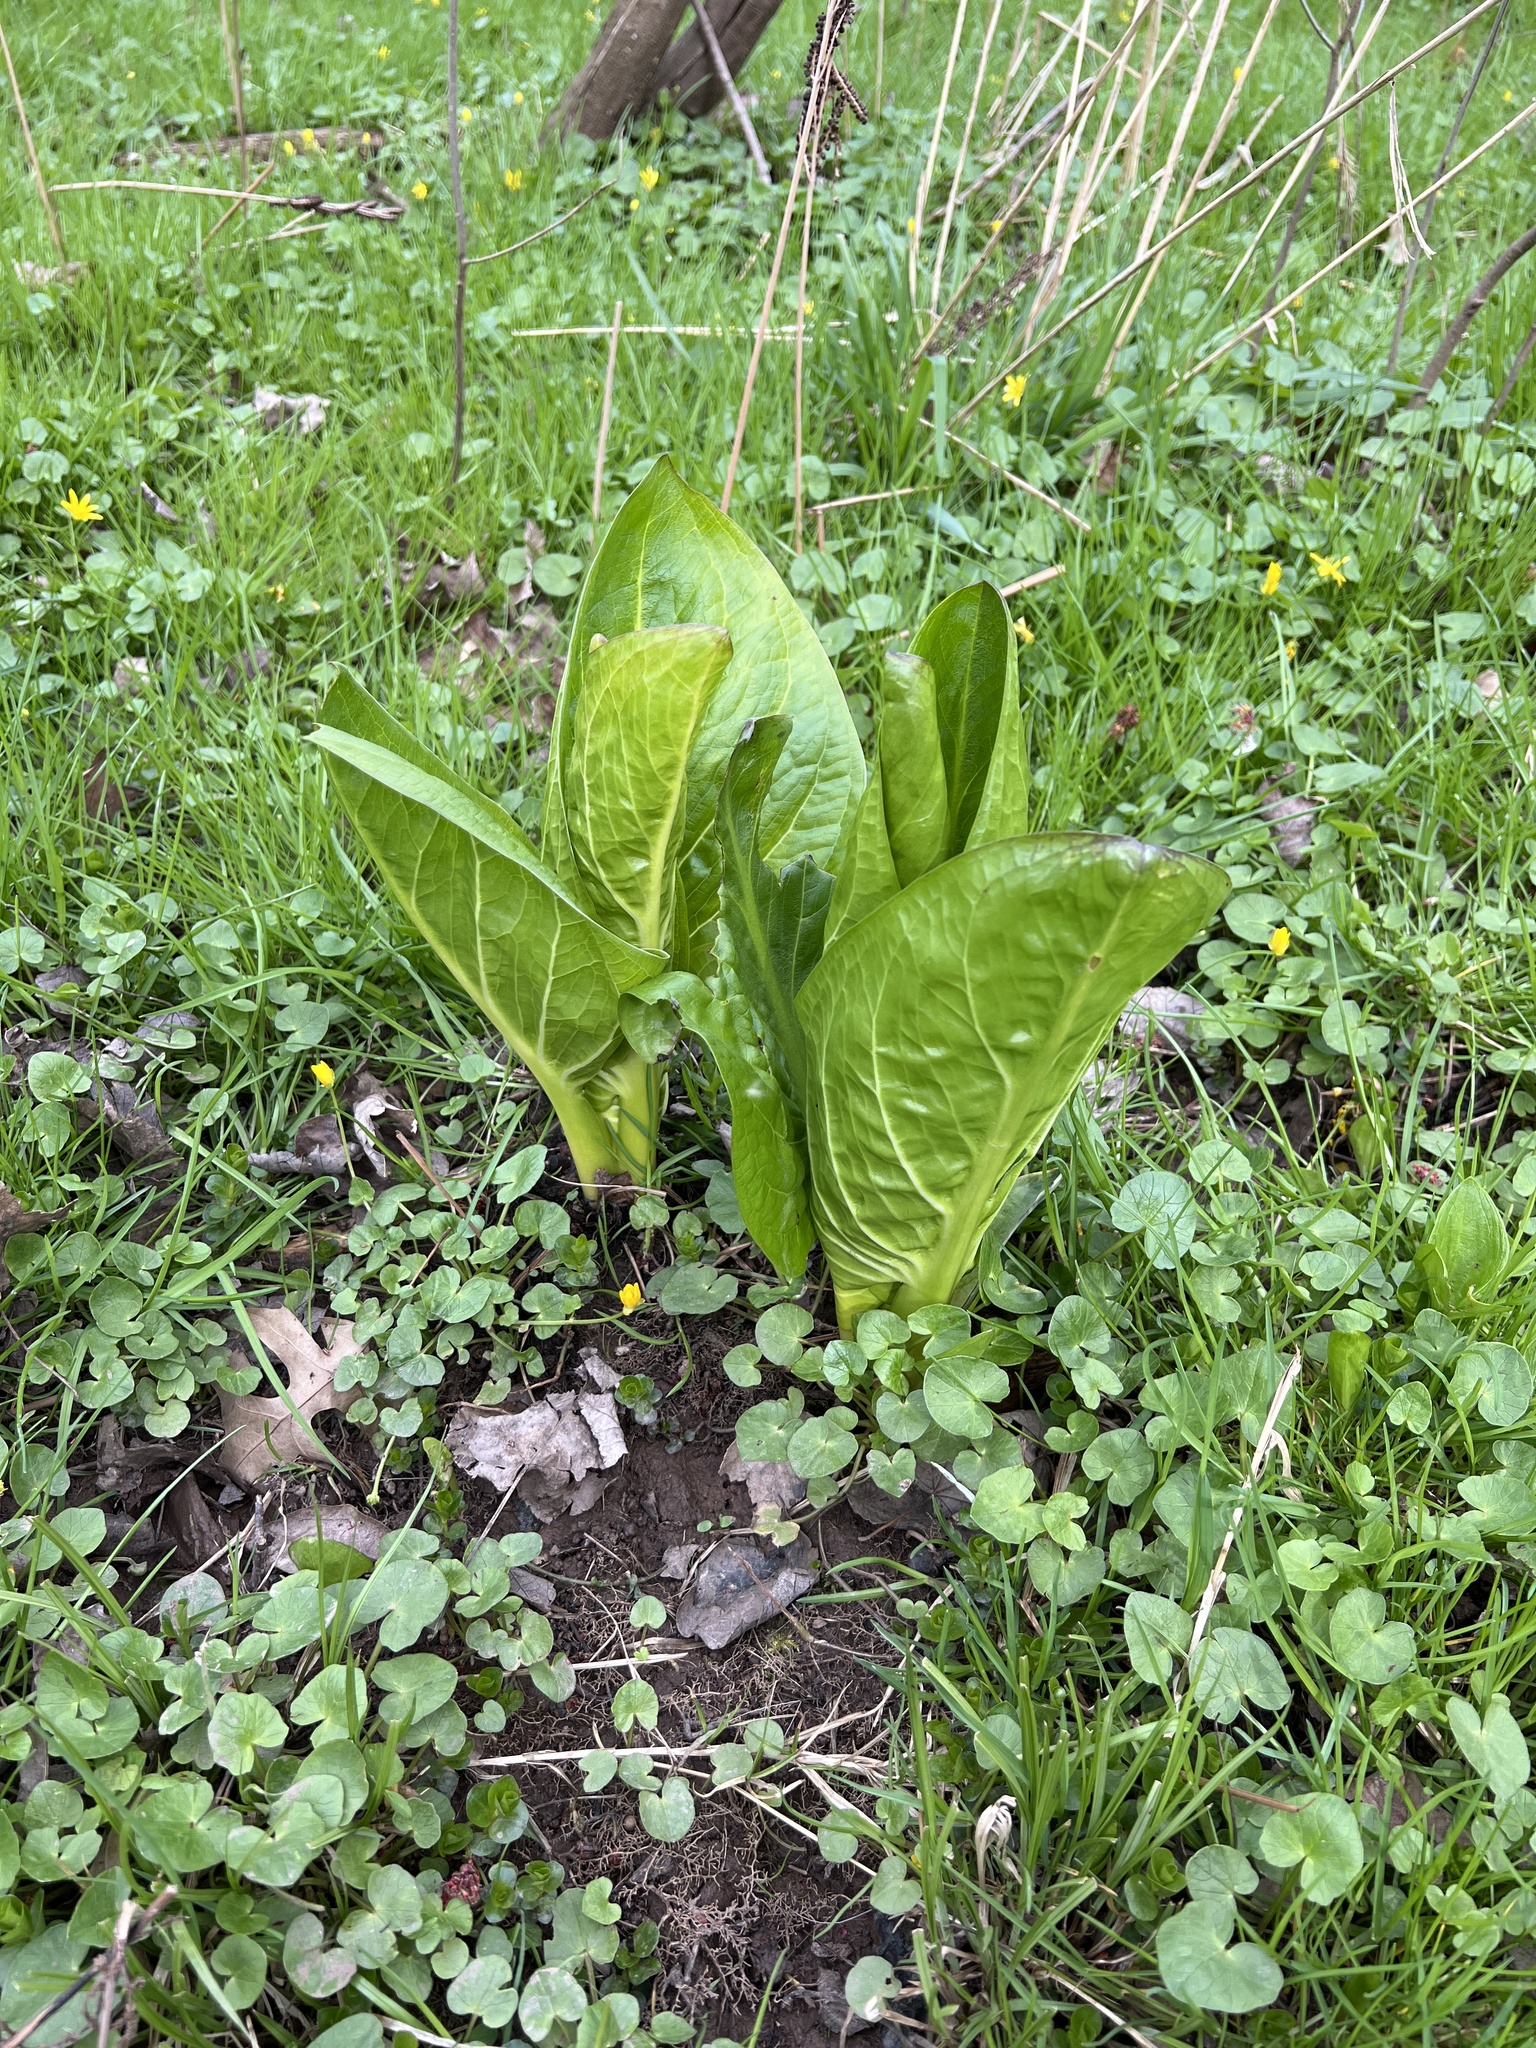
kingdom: Plantae
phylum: Tracheophyta
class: Liliopsida
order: Alismatales
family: Araceae
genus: Symplocarpus
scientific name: Symplocarpus foetidus
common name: Eastern skunk cabbage
